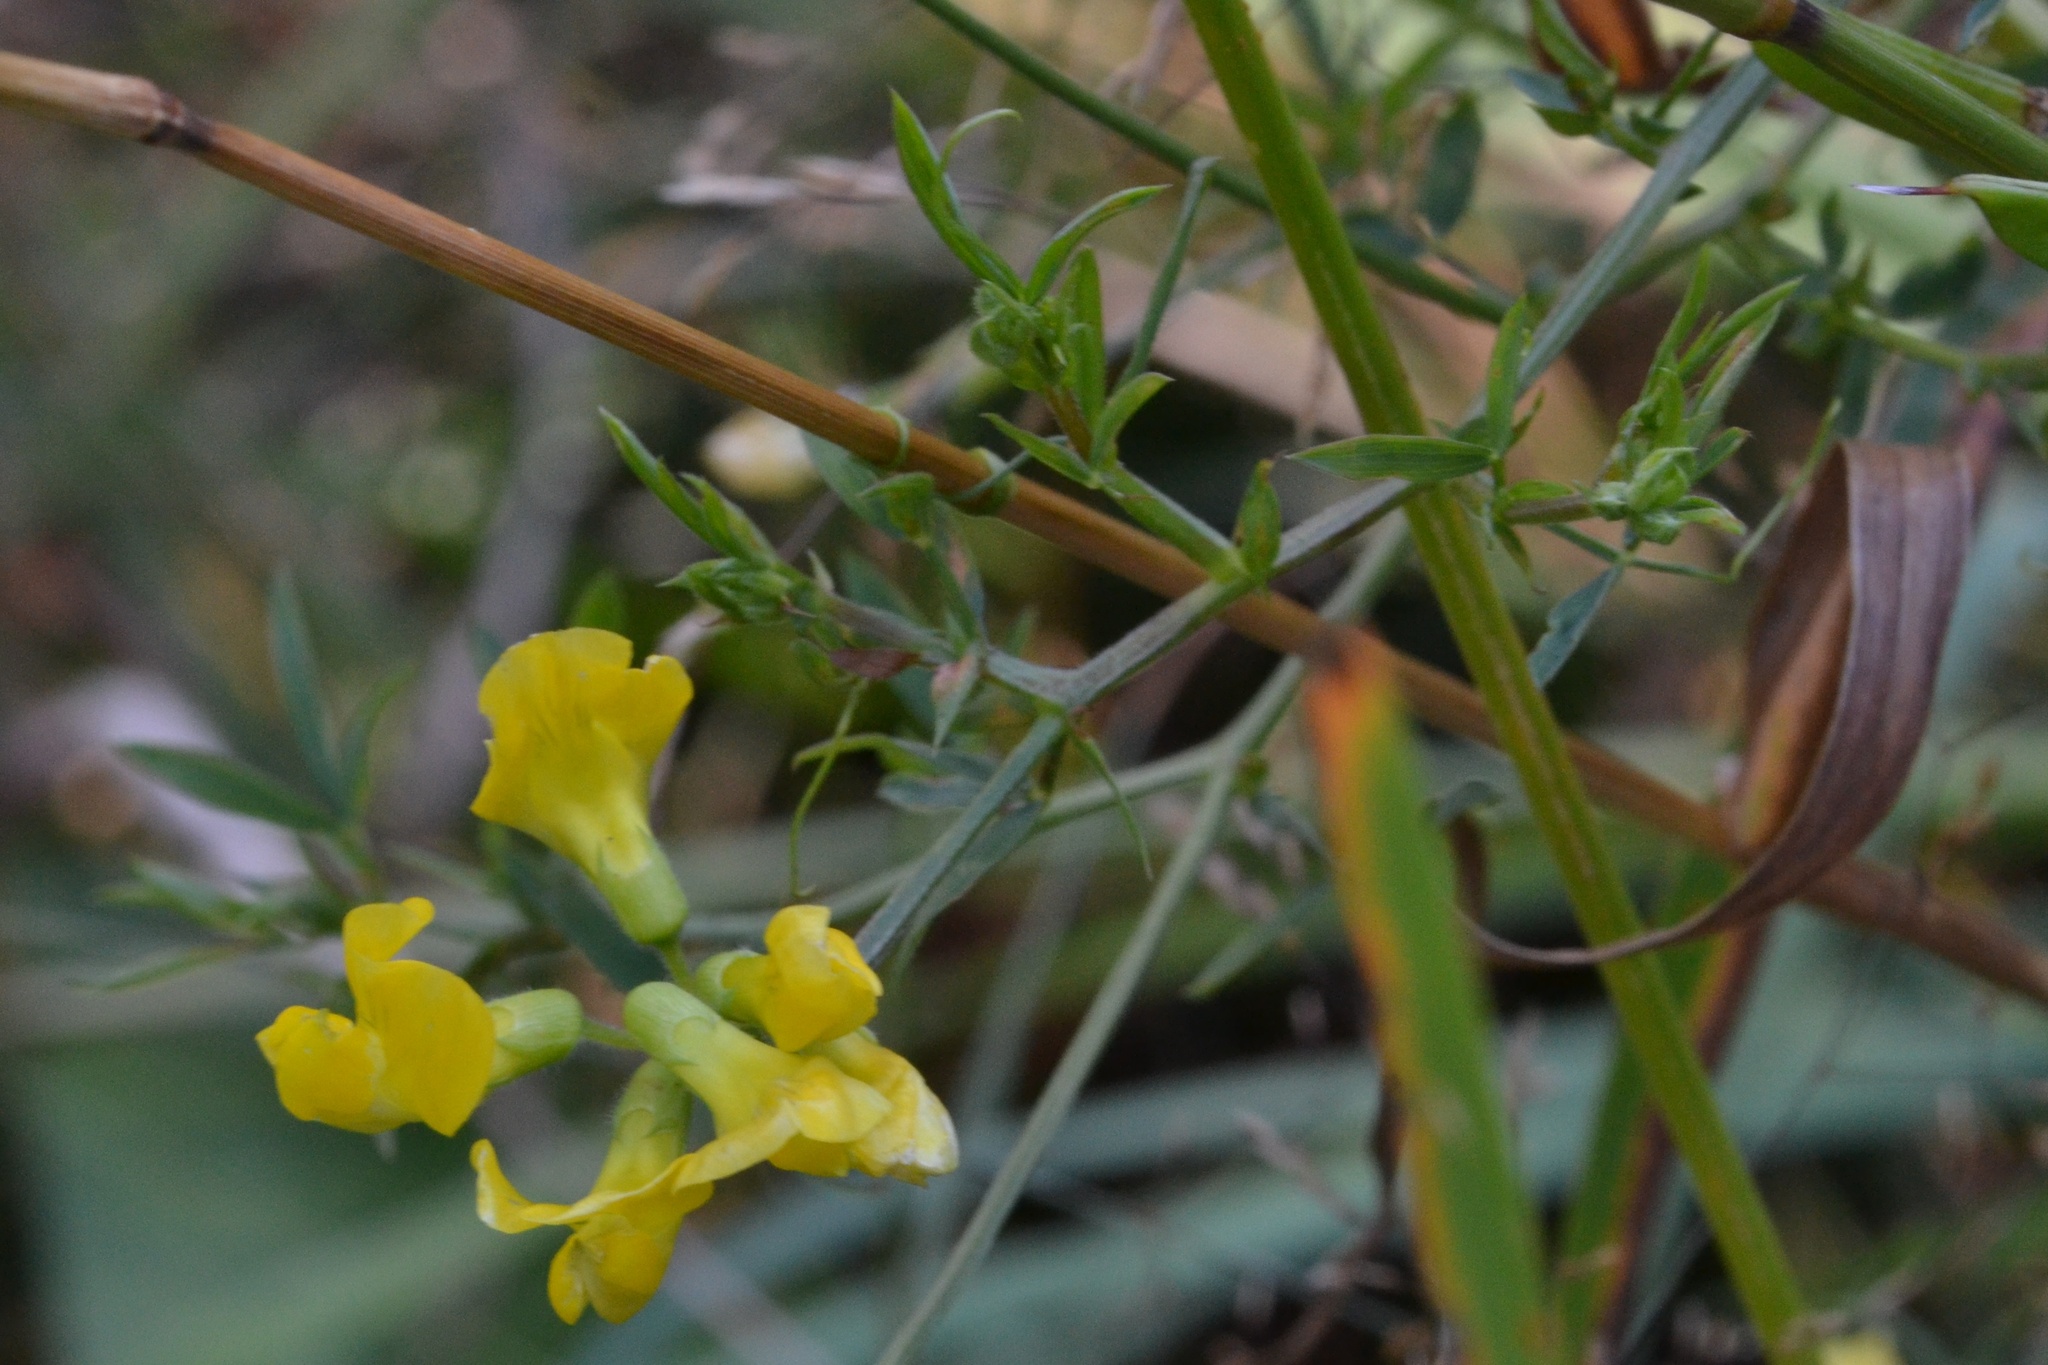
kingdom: Plantae
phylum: Tracheophyta
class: Magnoliopsida
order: Fabales
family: Fabaceae
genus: Lathyrus
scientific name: Lathyrus pratensis
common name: Meadow vetchling
